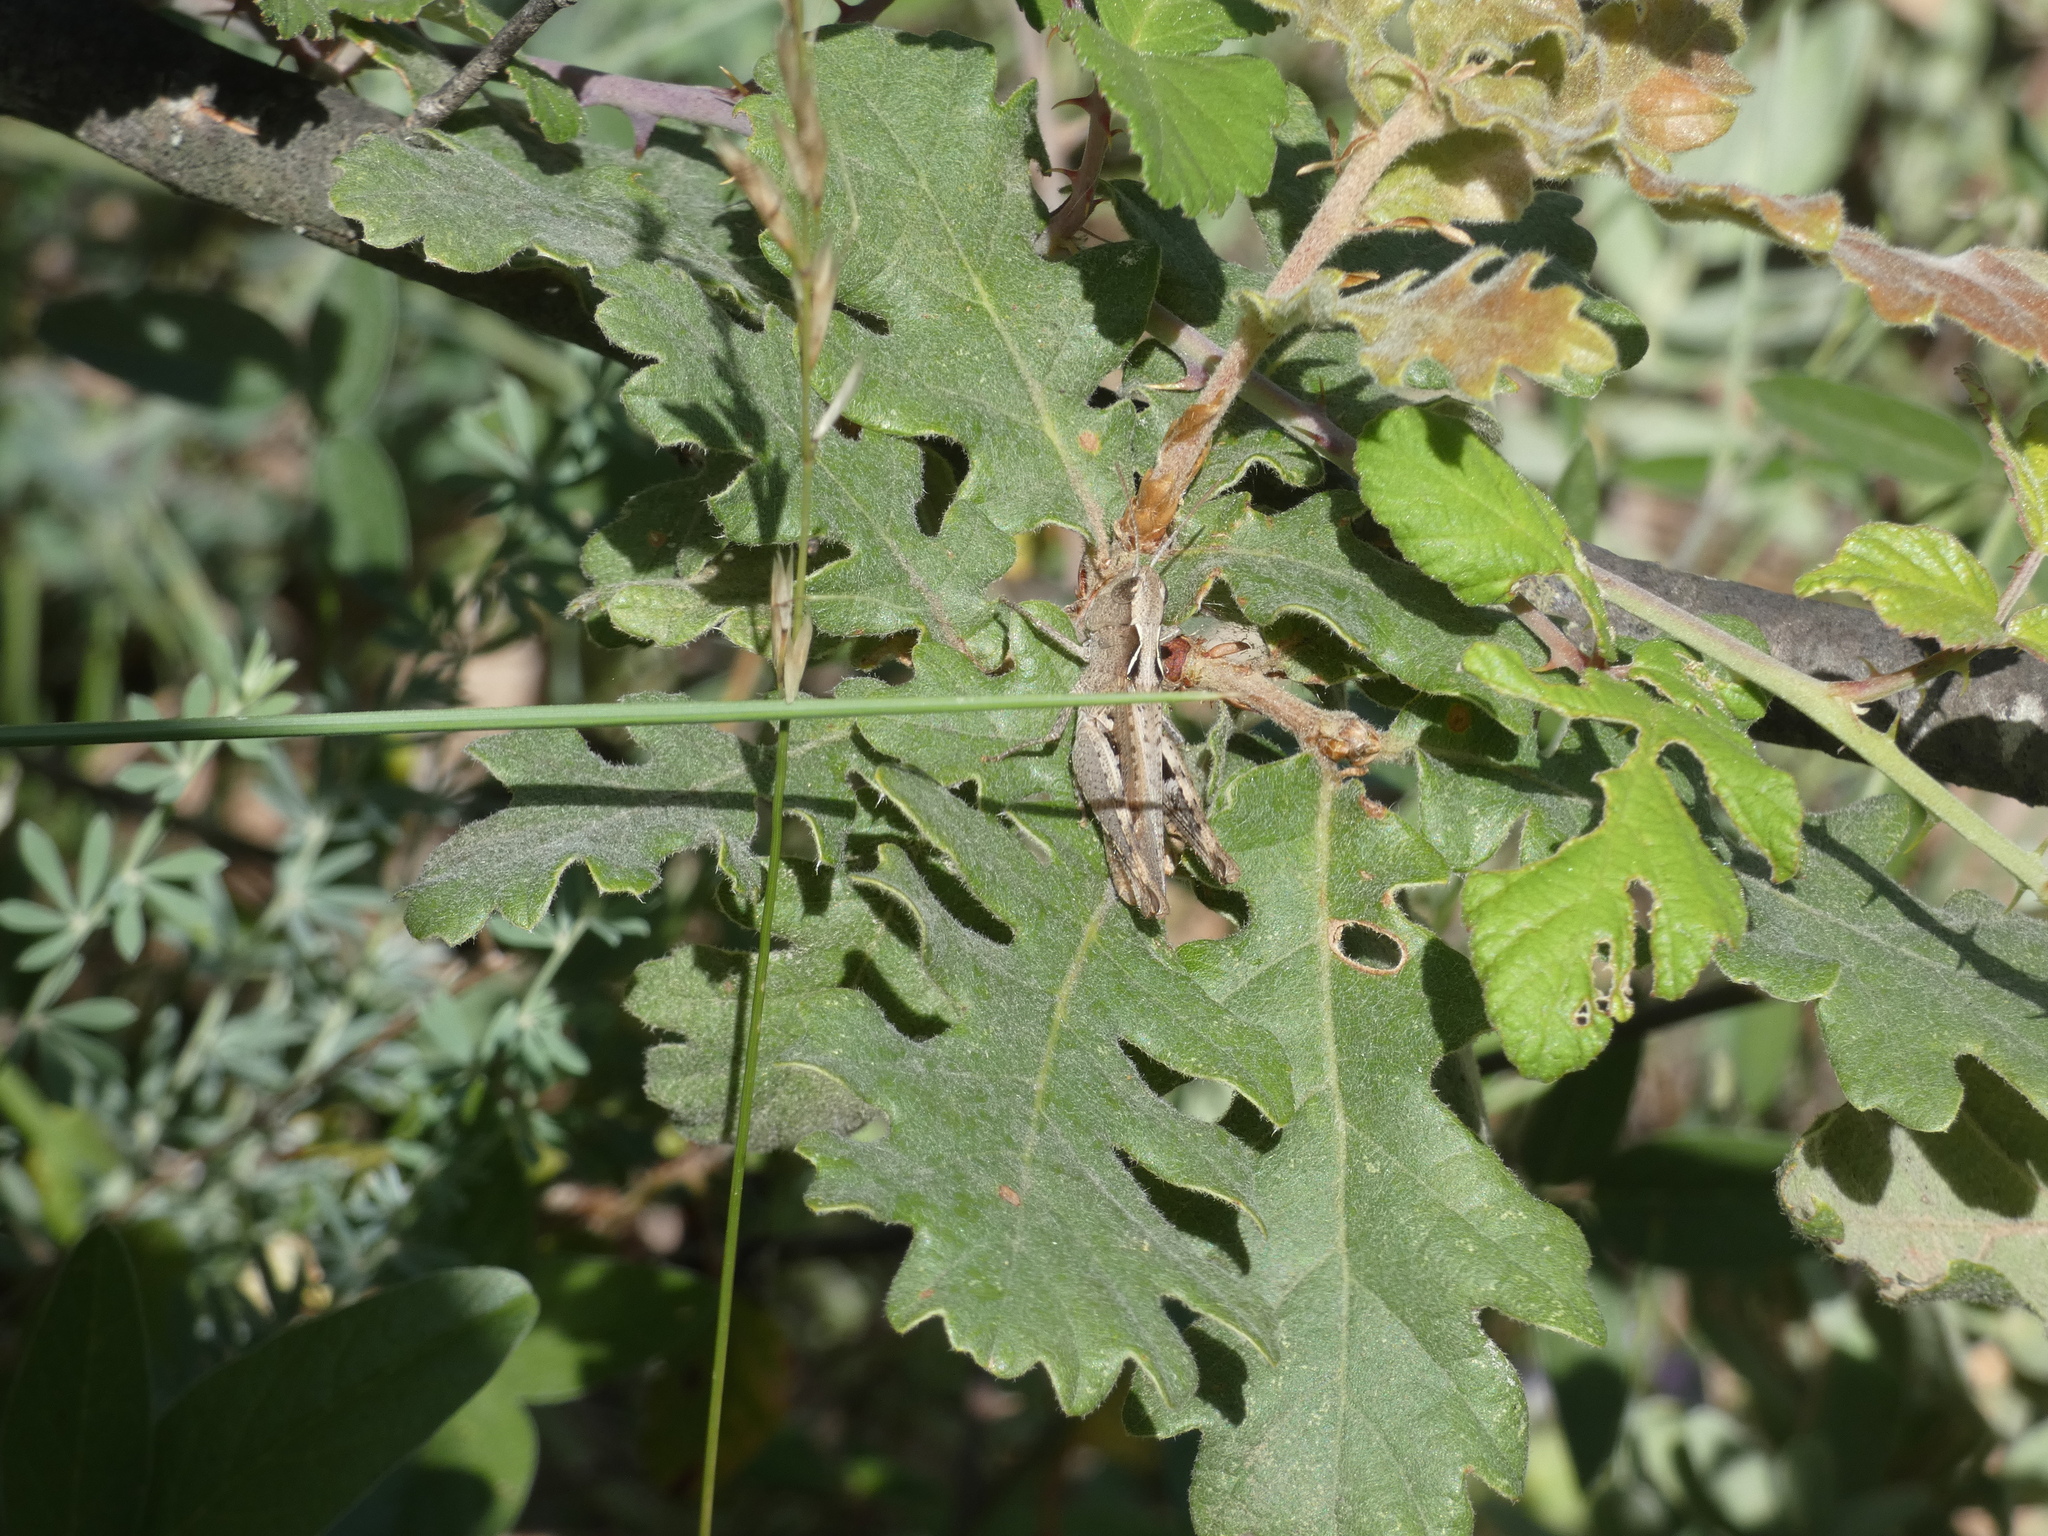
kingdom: Animalia
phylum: Arthropoda
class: Insecta
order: Orthoptera
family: Acrididae
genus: Chorthippus
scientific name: Chorthippus vagans
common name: Heath grasshopper
